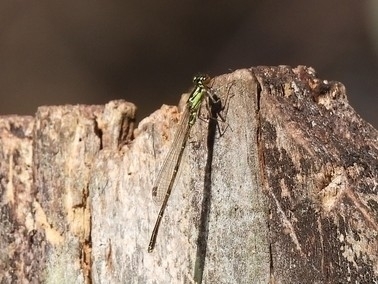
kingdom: Animalia
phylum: Arthropoda
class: Insecta
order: Odonata
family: Coenagrionidae
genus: Ischnura
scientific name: Ischnura posita
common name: Fragile forktail
